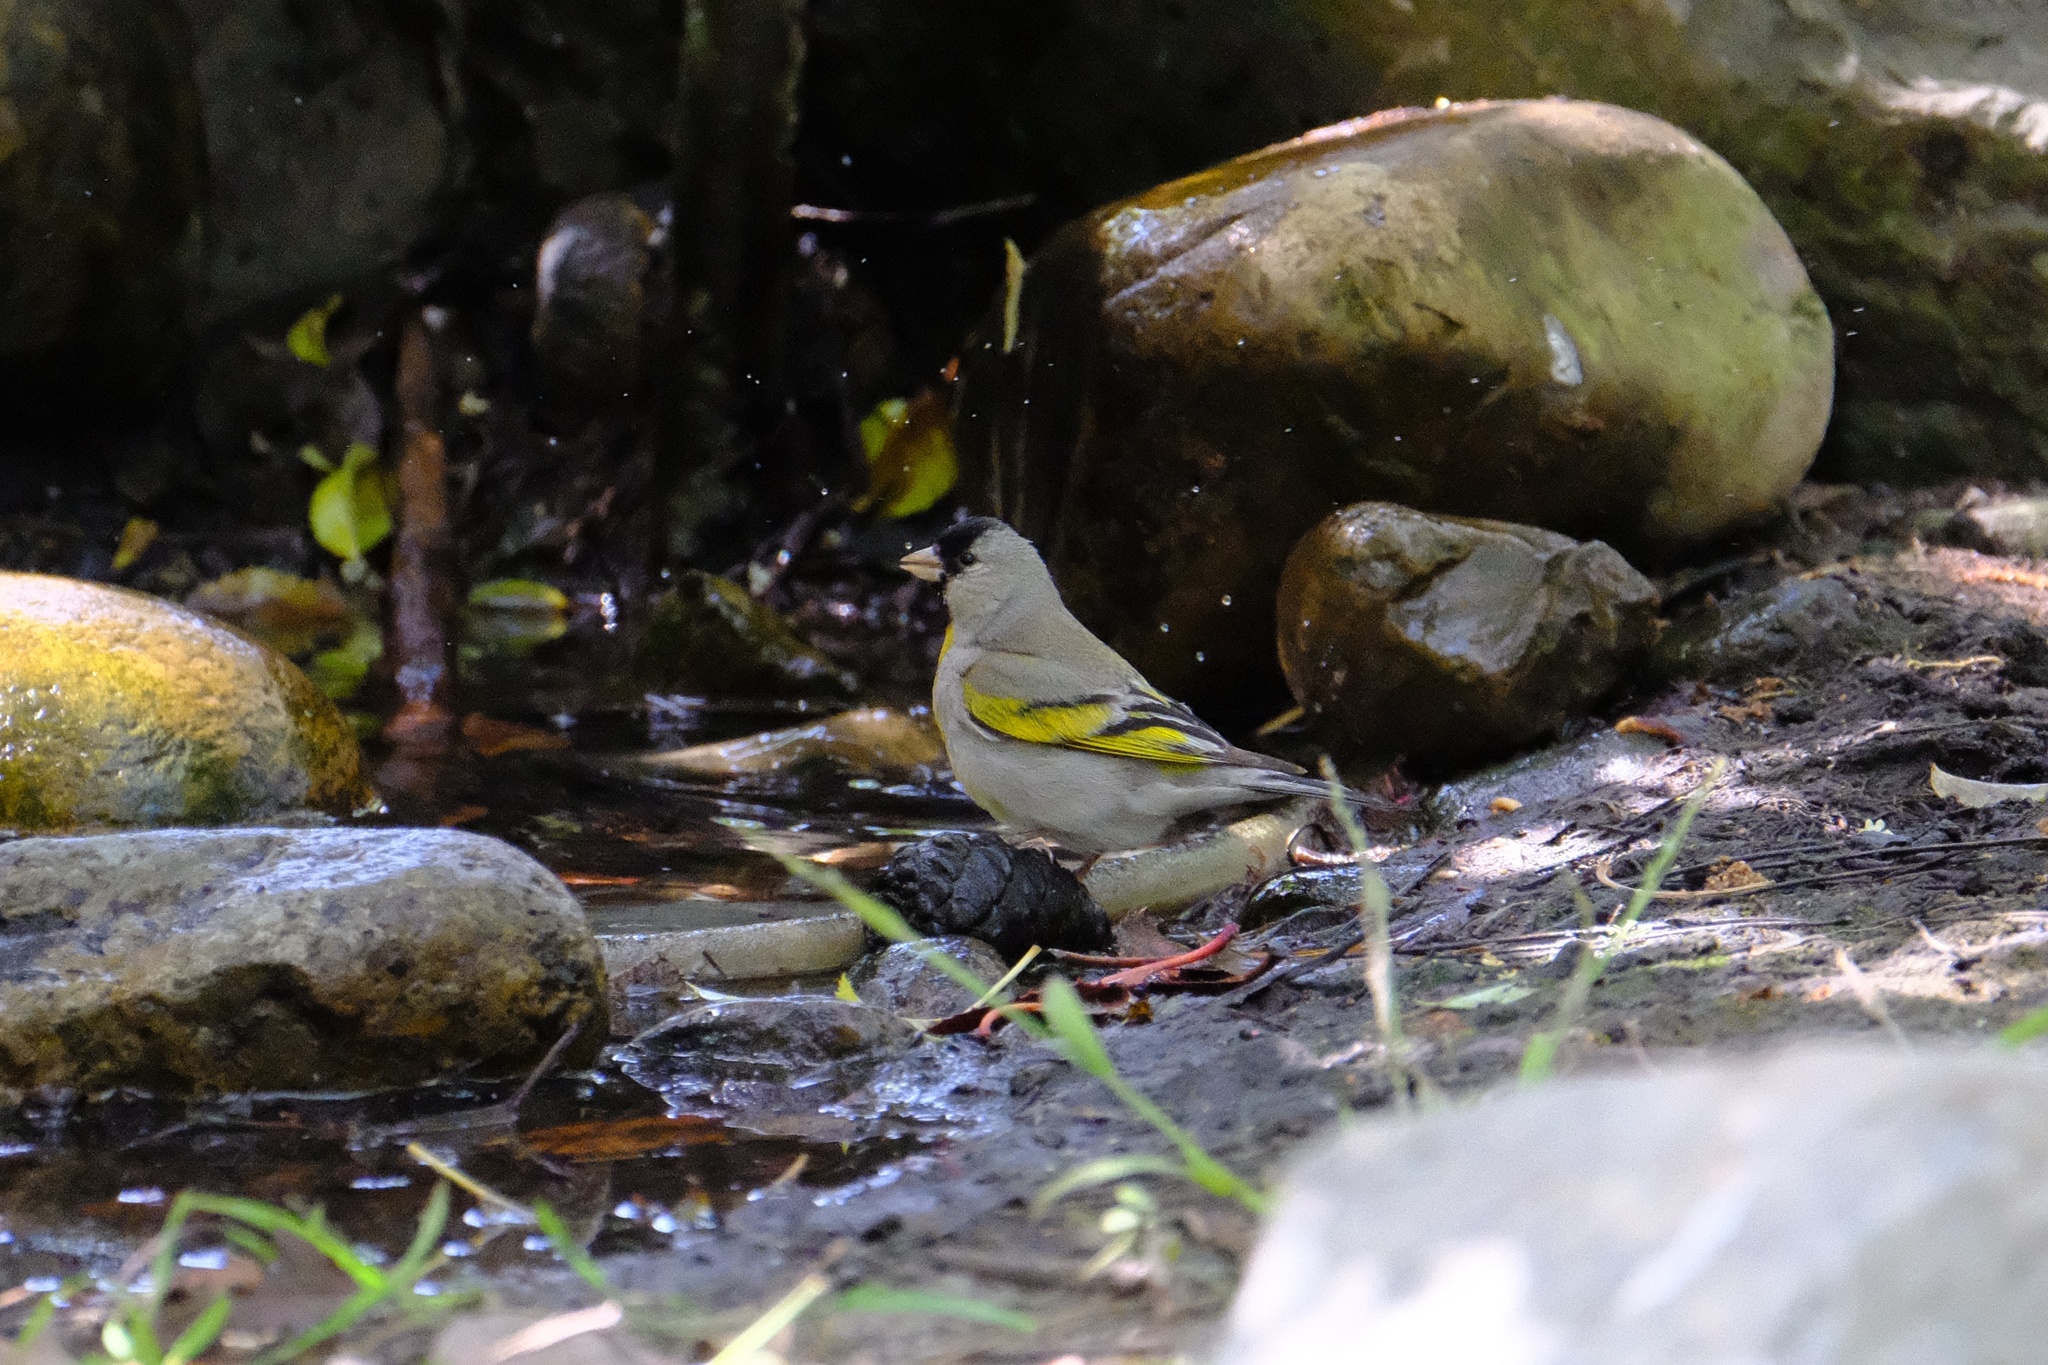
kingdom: Animalia
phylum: Chordata
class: Aves
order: Passeriformes
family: Fringillidae
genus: Spinus
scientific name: Spinus lawrencei
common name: Lawrence's goldfinch
